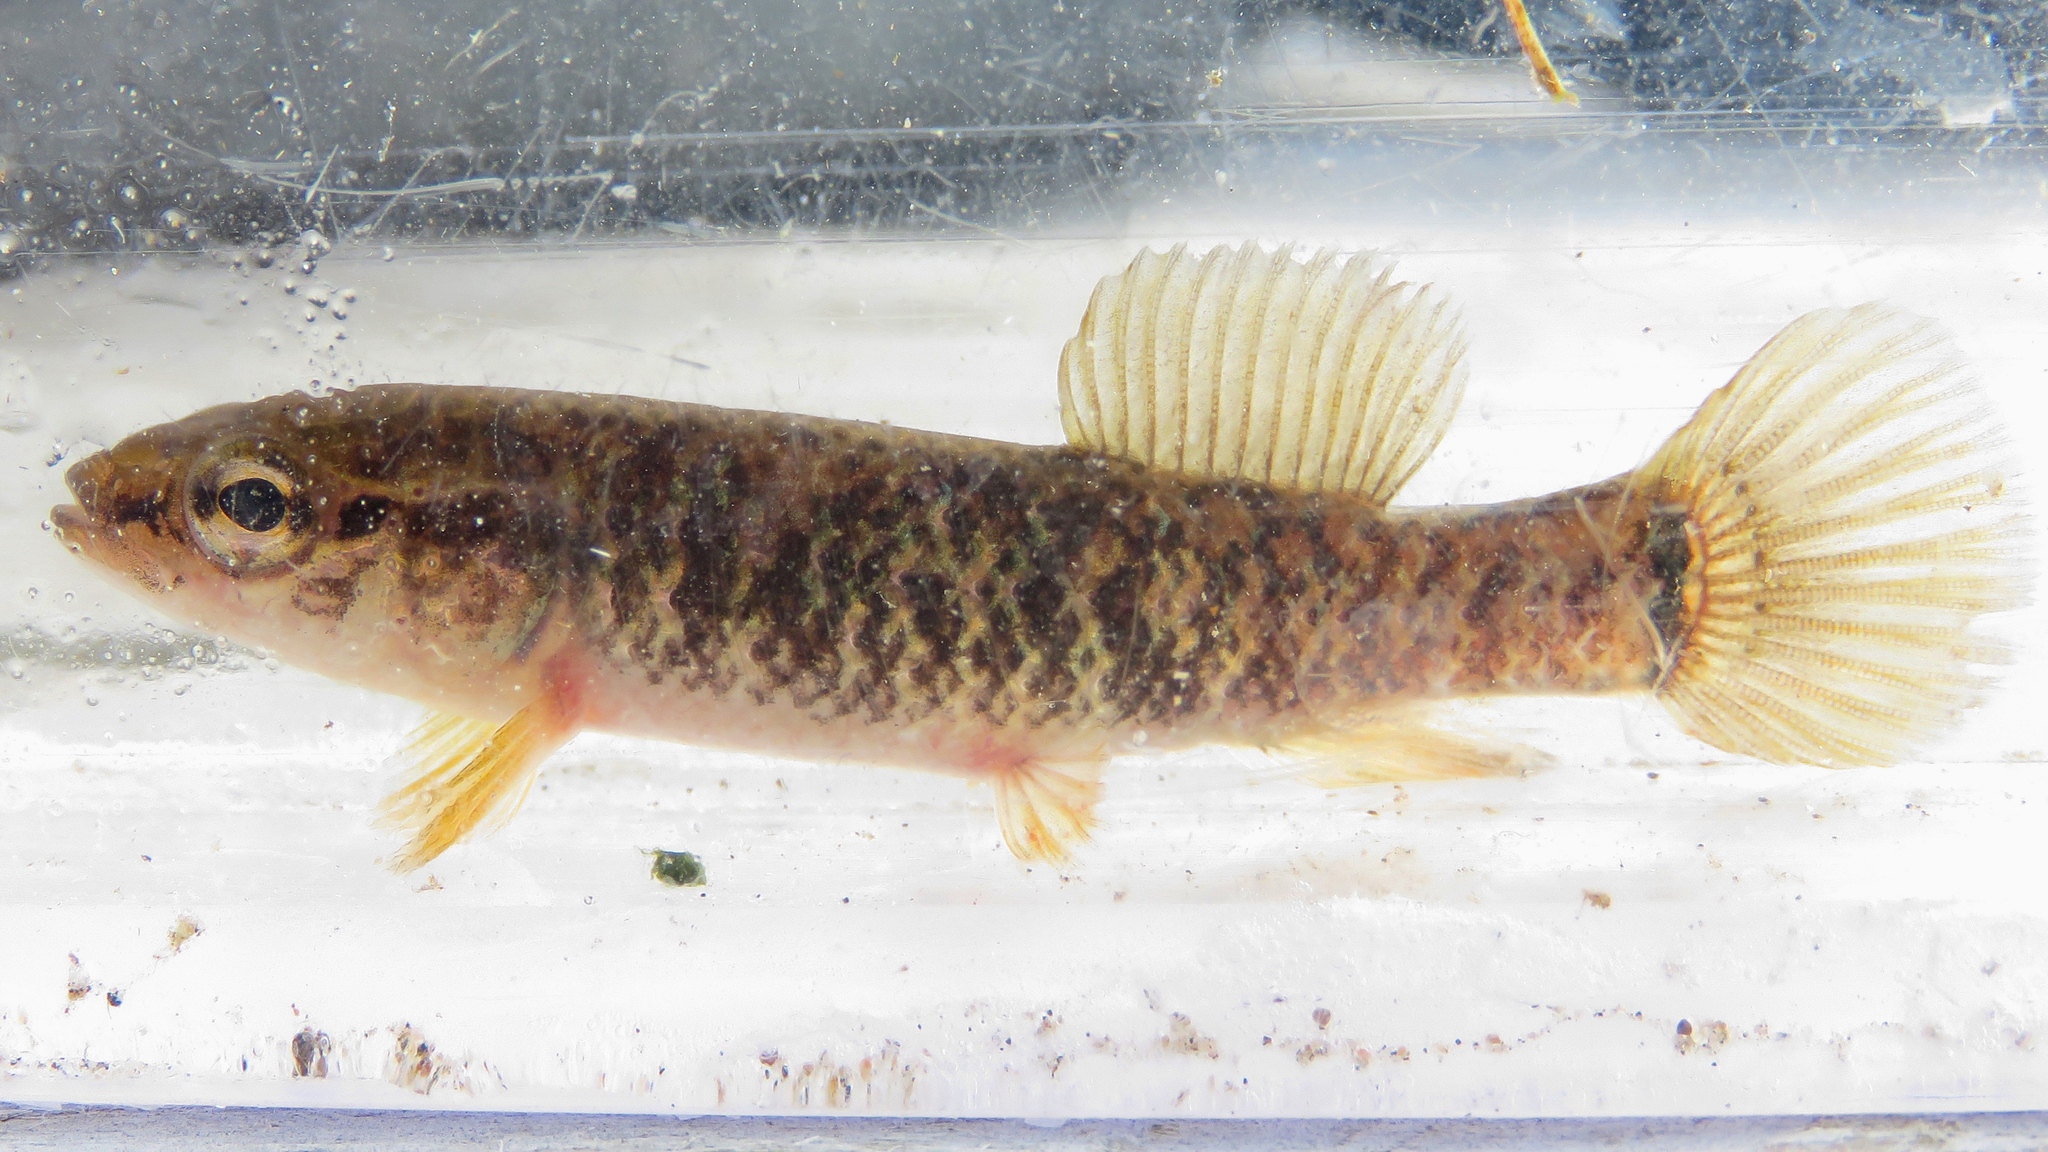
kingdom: Animalia
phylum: Chordata
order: Esociformes
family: Umbridae
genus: Umbra
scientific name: Umbra limi
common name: Central mudminnow
